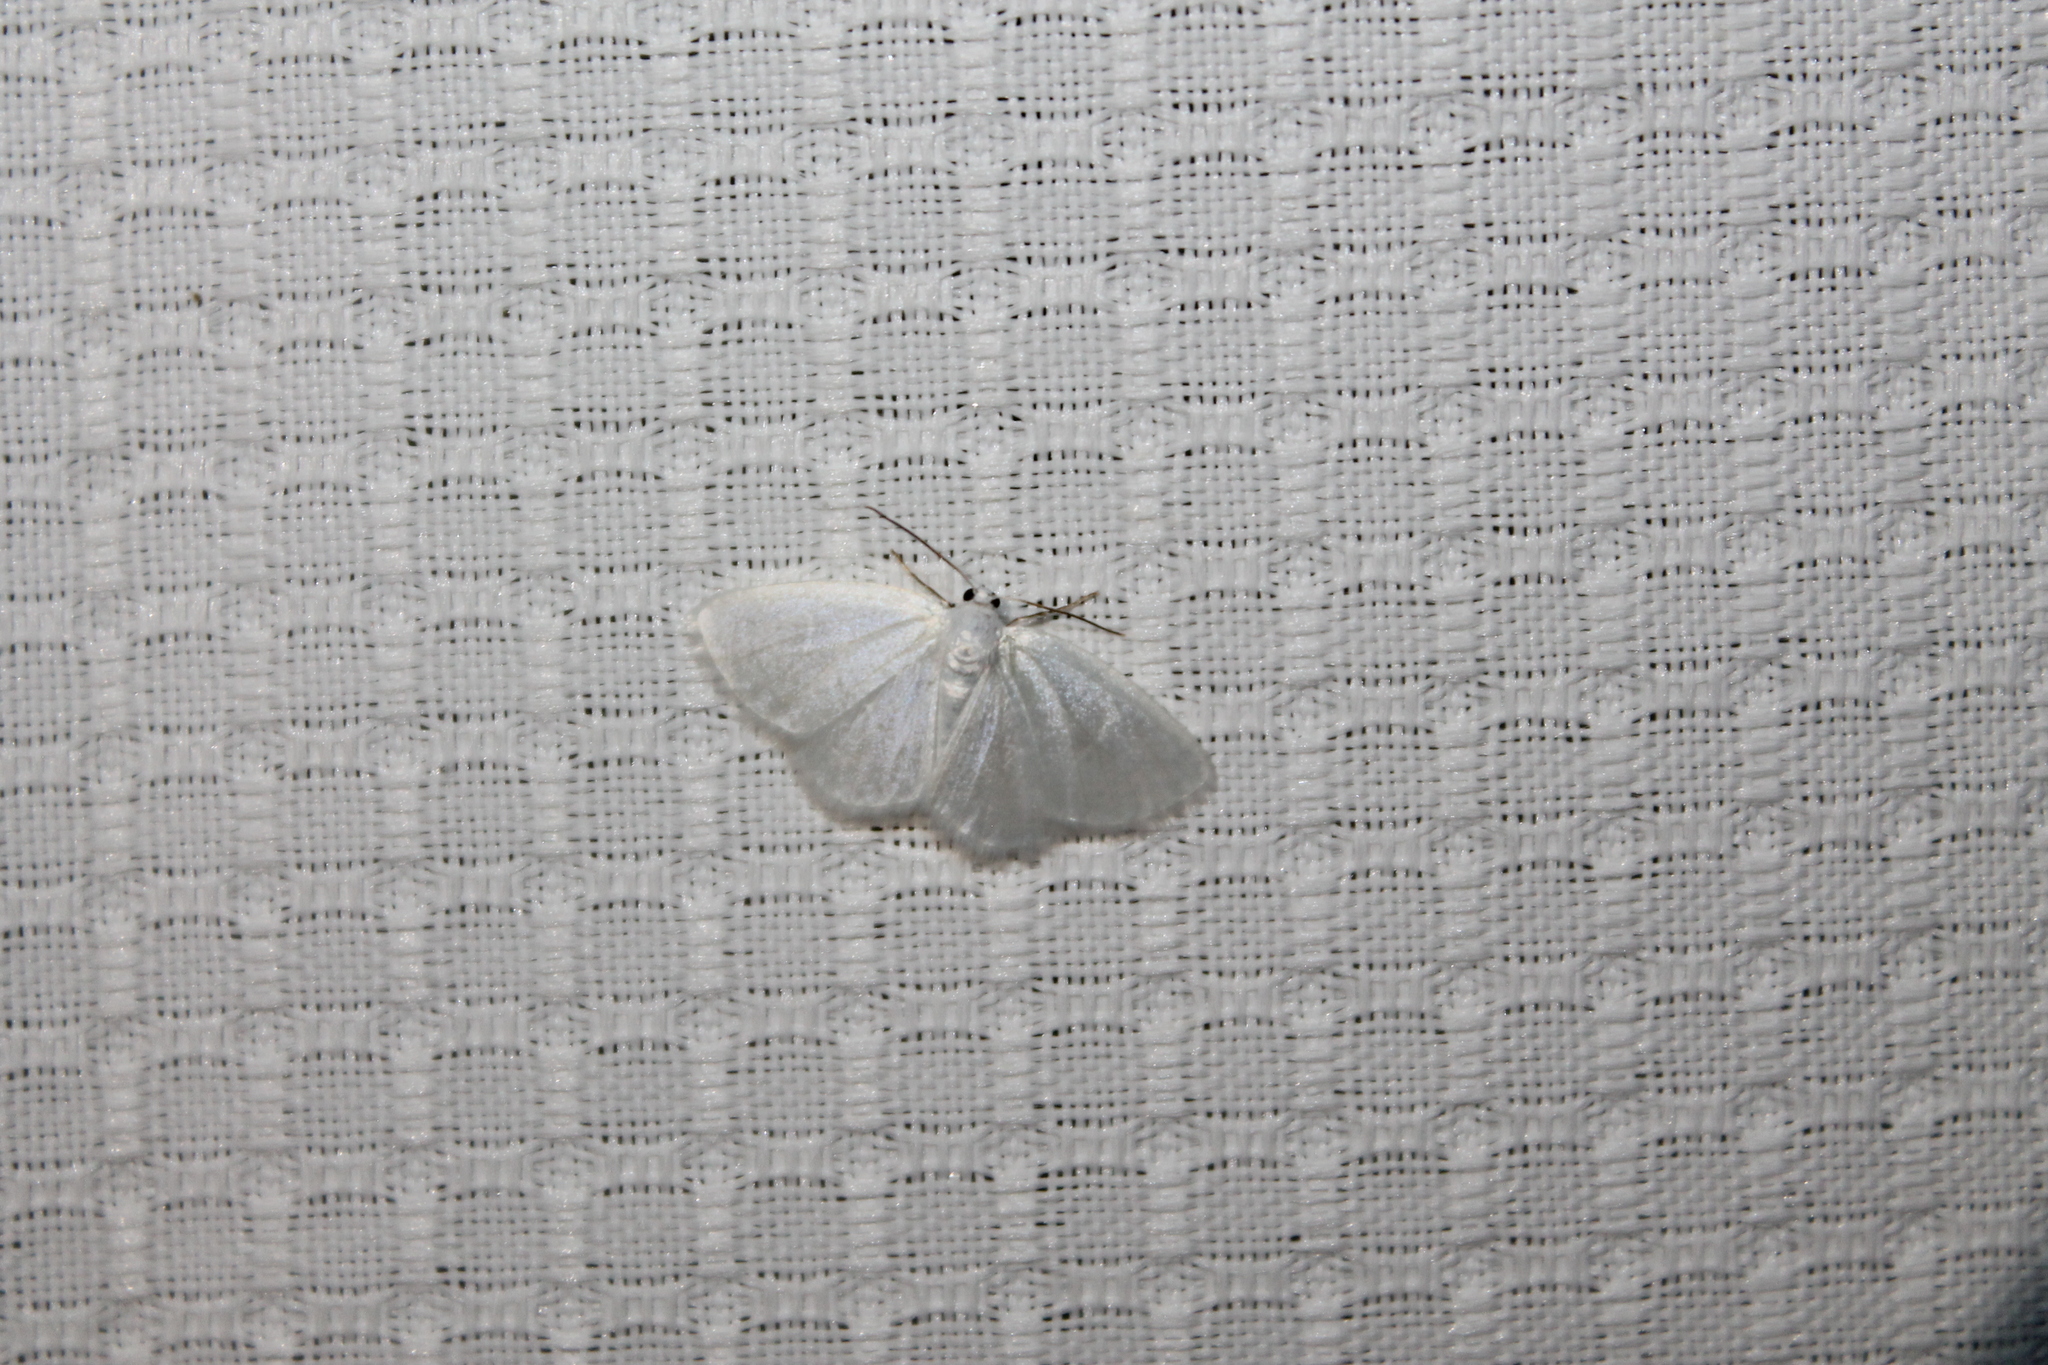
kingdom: Animalia
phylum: Arthropoda
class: Insecta
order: Lepidoptera
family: Geometridae
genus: Lomographa
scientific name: Lomographa vestaliata
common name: White spring moth
